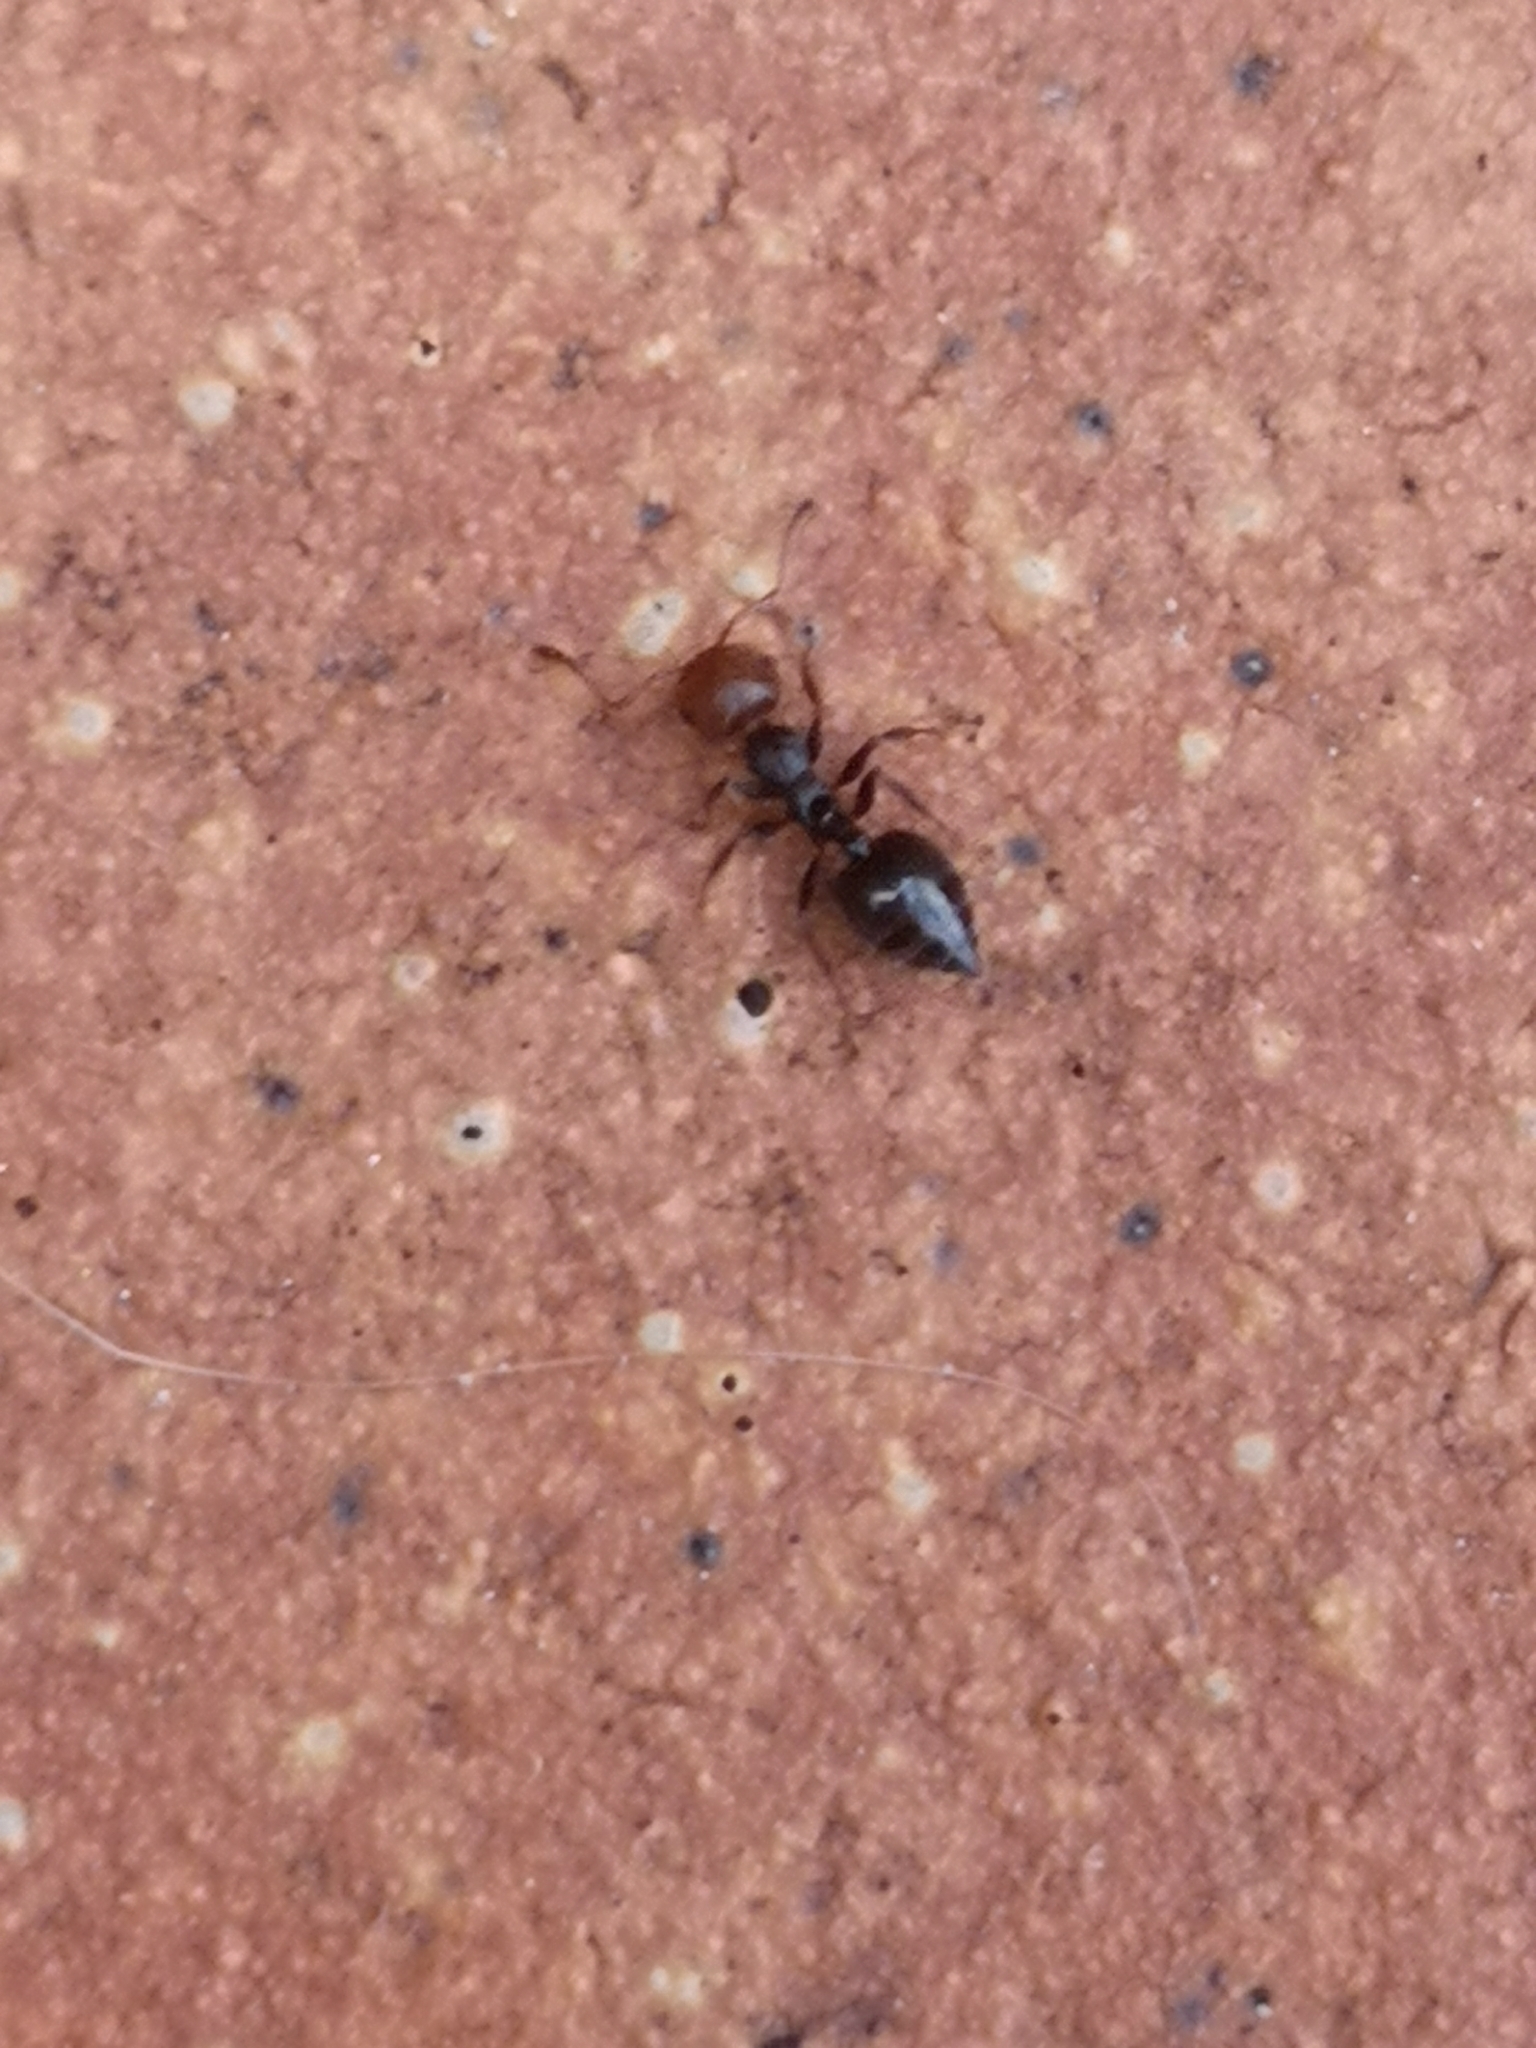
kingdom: Animalia
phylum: Arthropoda
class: Insecta
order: Hymenoptera
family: Formicidae
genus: Crematogaster
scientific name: Crematogaster scutellaris
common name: Fourmi du liège
